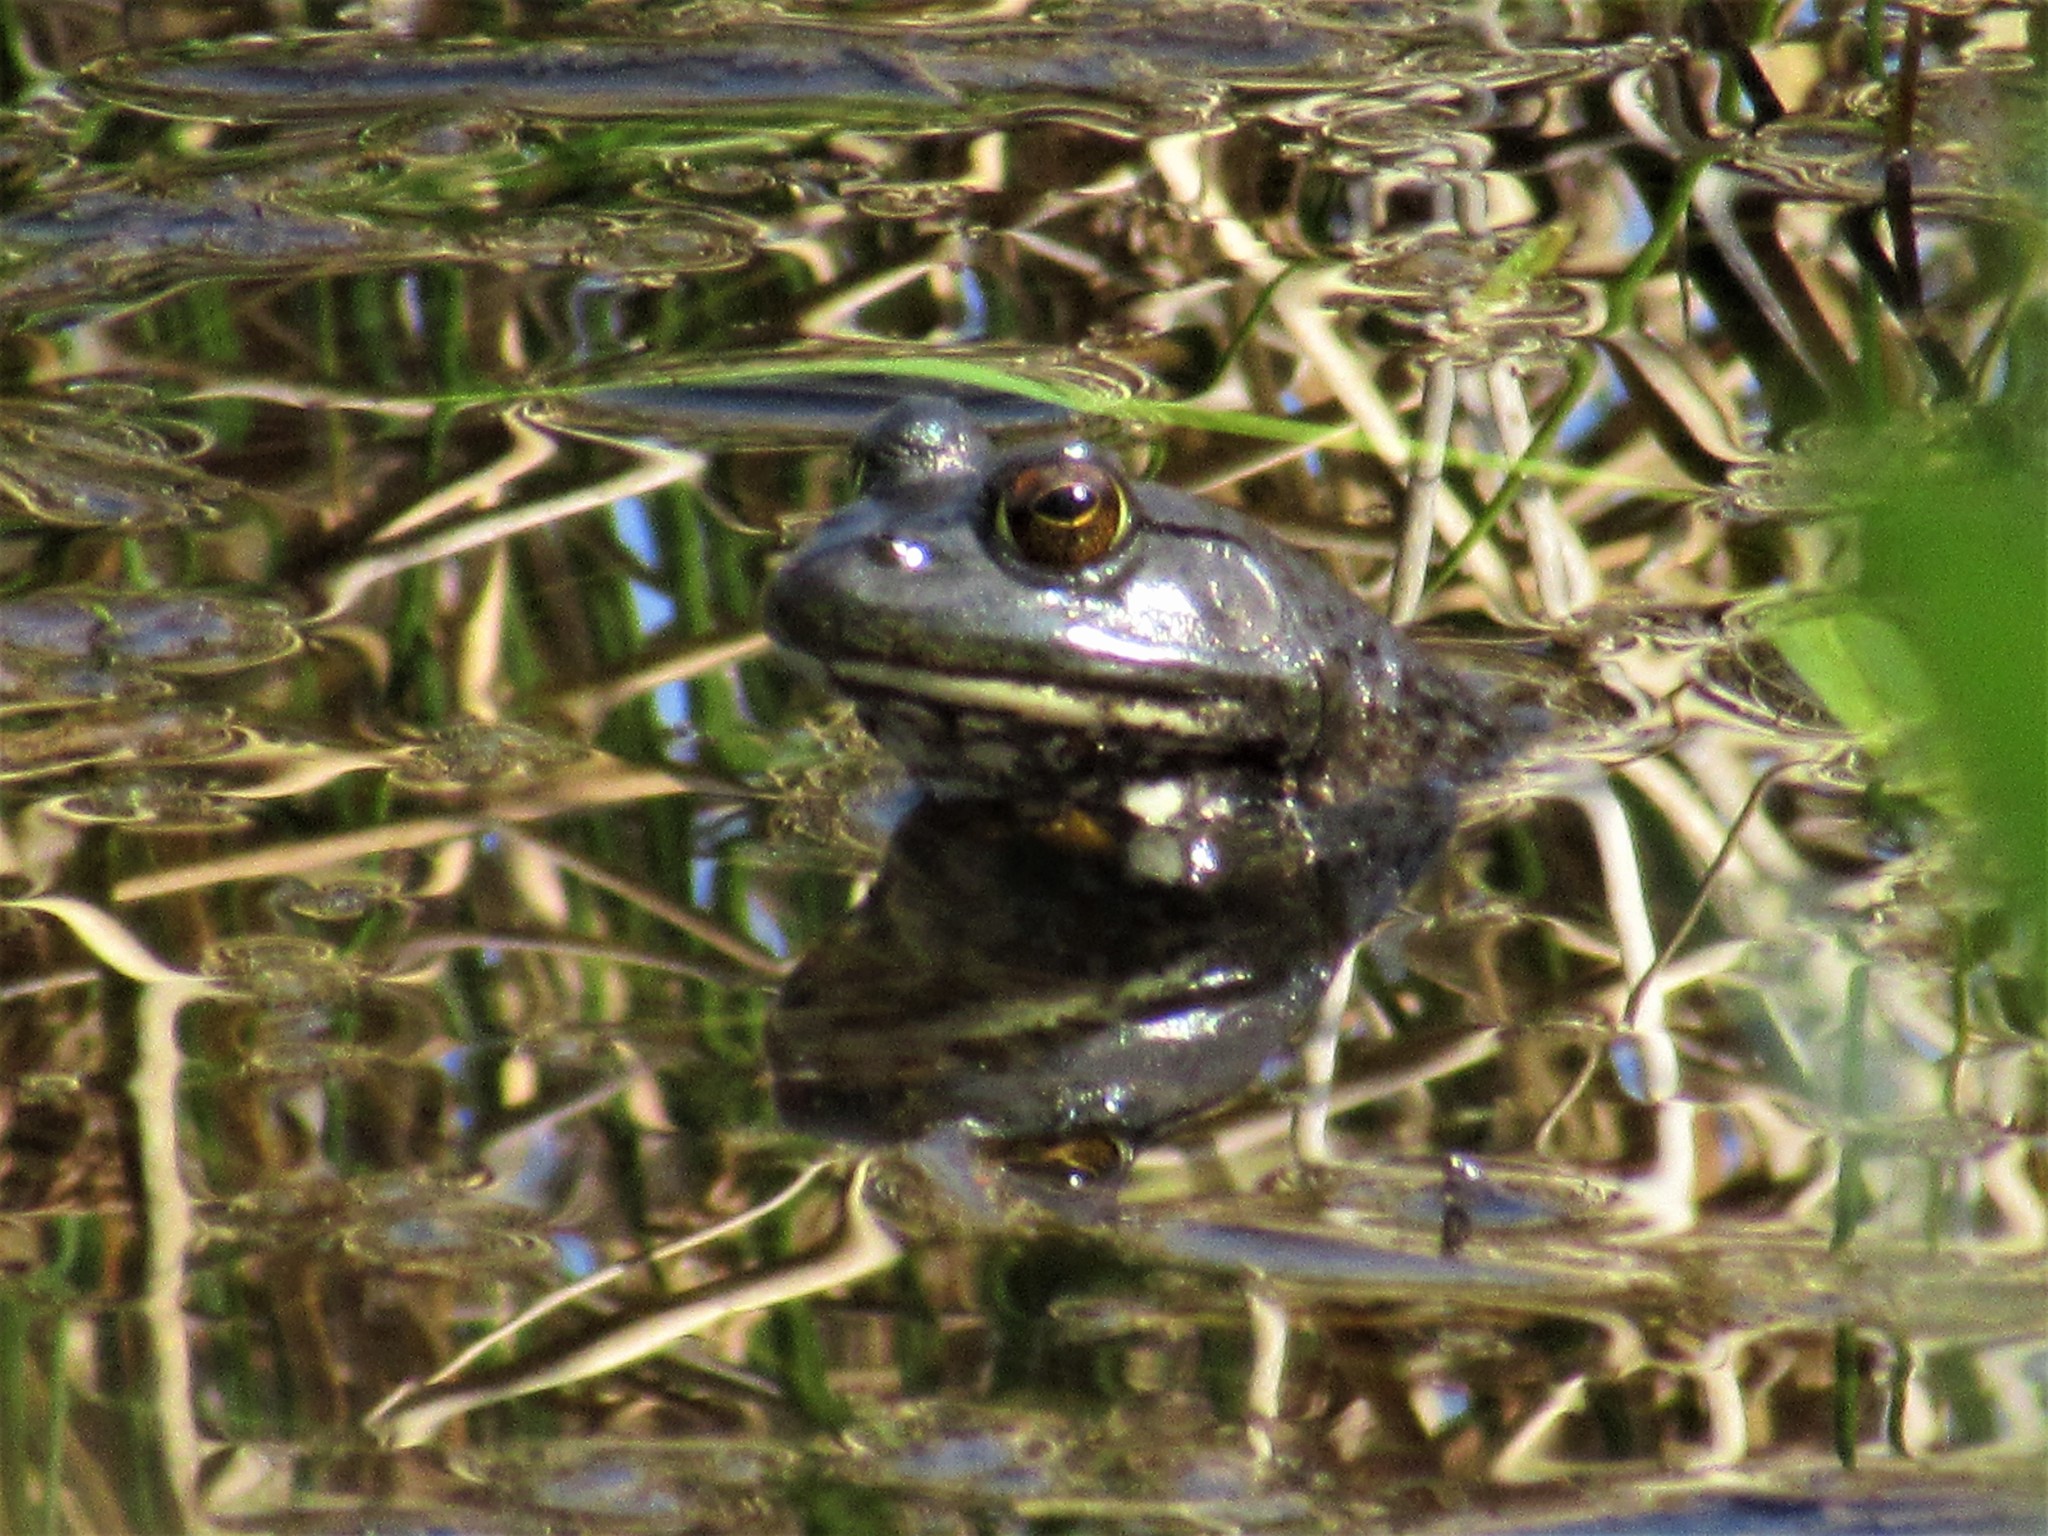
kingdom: Animalia
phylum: Chordata
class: Amphibia
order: Anura
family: Ranidae
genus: Lithobates
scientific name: Lithobates catesbeianus
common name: American bullfrog
